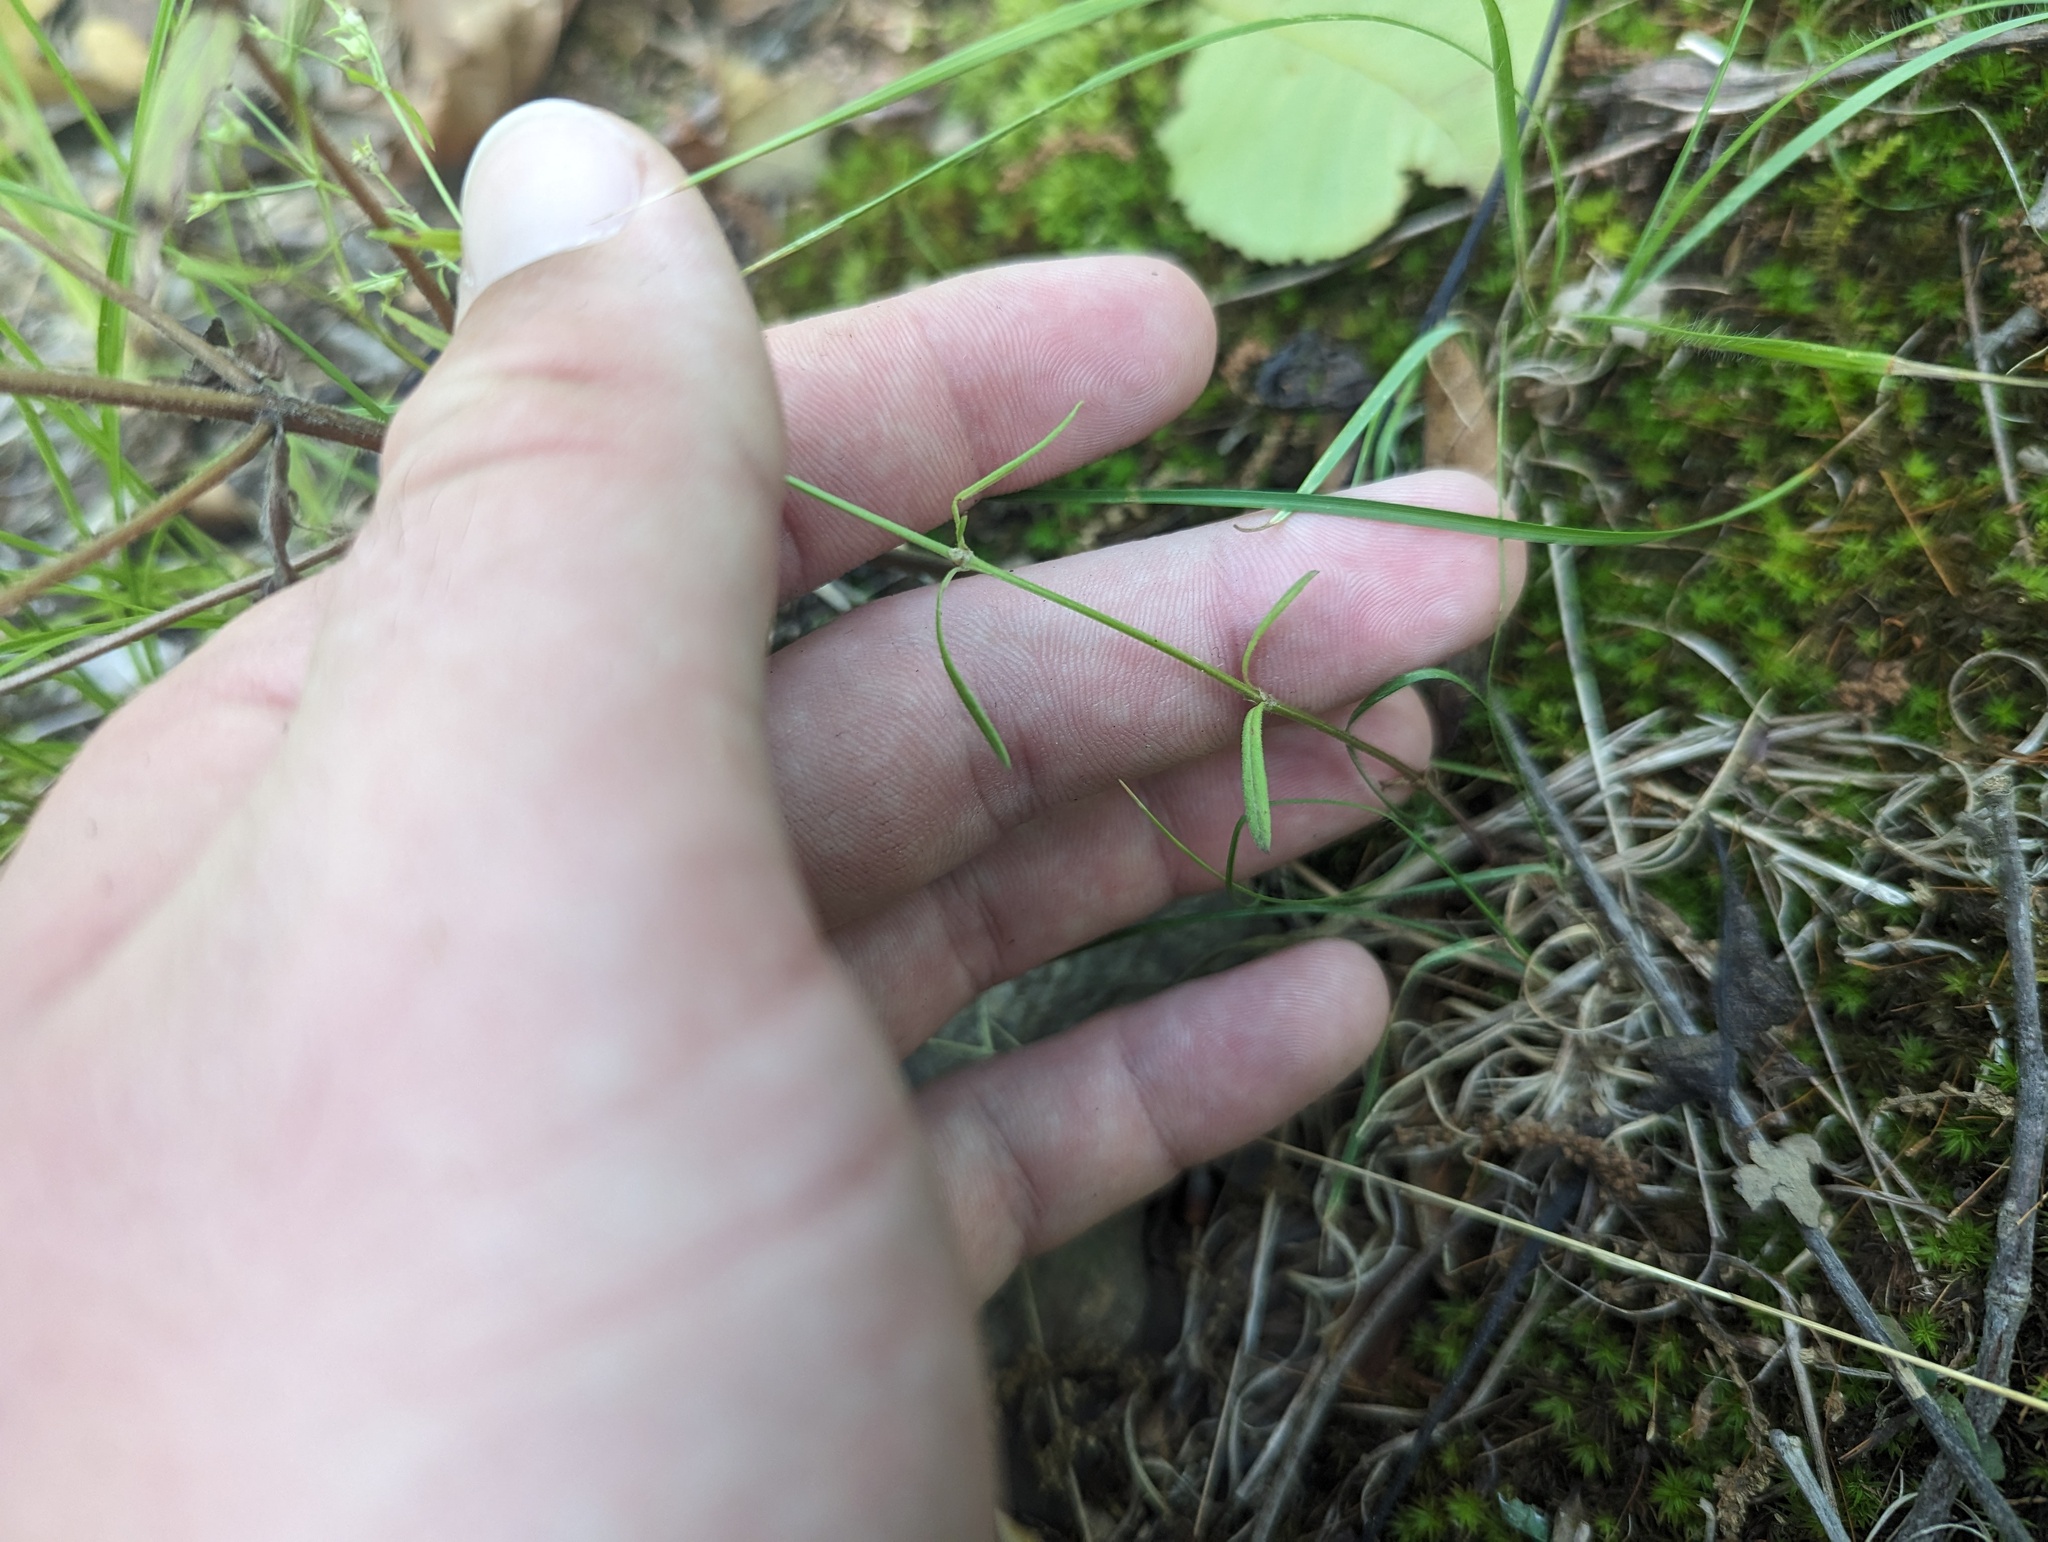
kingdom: Plantae
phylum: Tracheophyta
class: Magnoliopsida
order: Gentianales
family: Rubiaceae
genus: Houstonia
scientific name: Houstonia longifolia
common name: Long-leaved bluets
